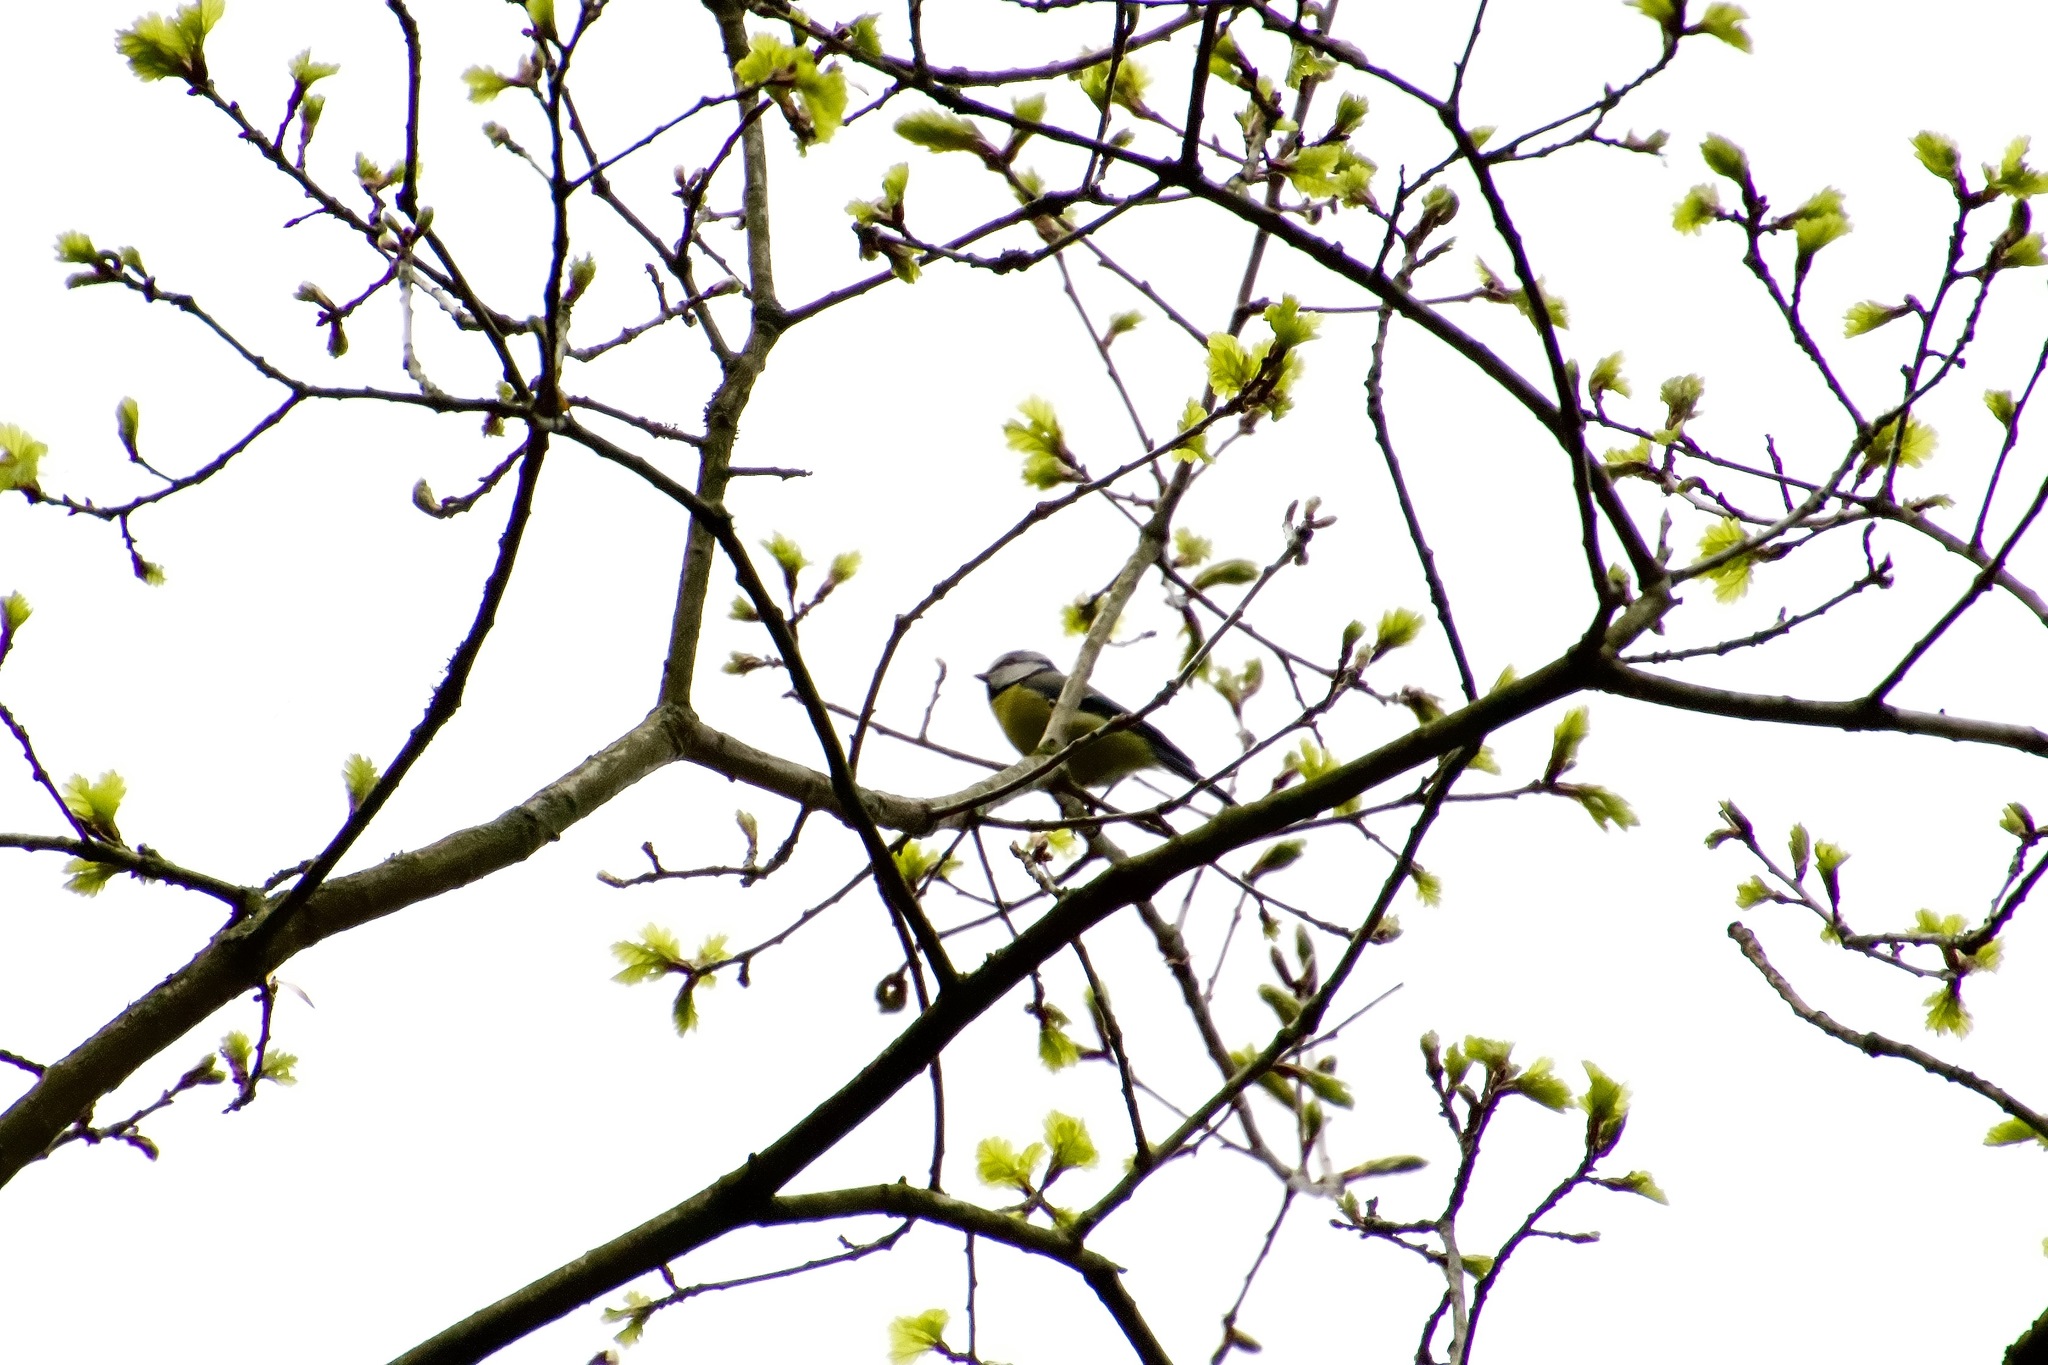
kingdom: Animalia
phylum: Chordata
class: Aves
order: Passeriformes
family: Paridae
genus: Cyanistes
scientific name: Cyanistes caeruleus
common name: Eurasian blue tit
